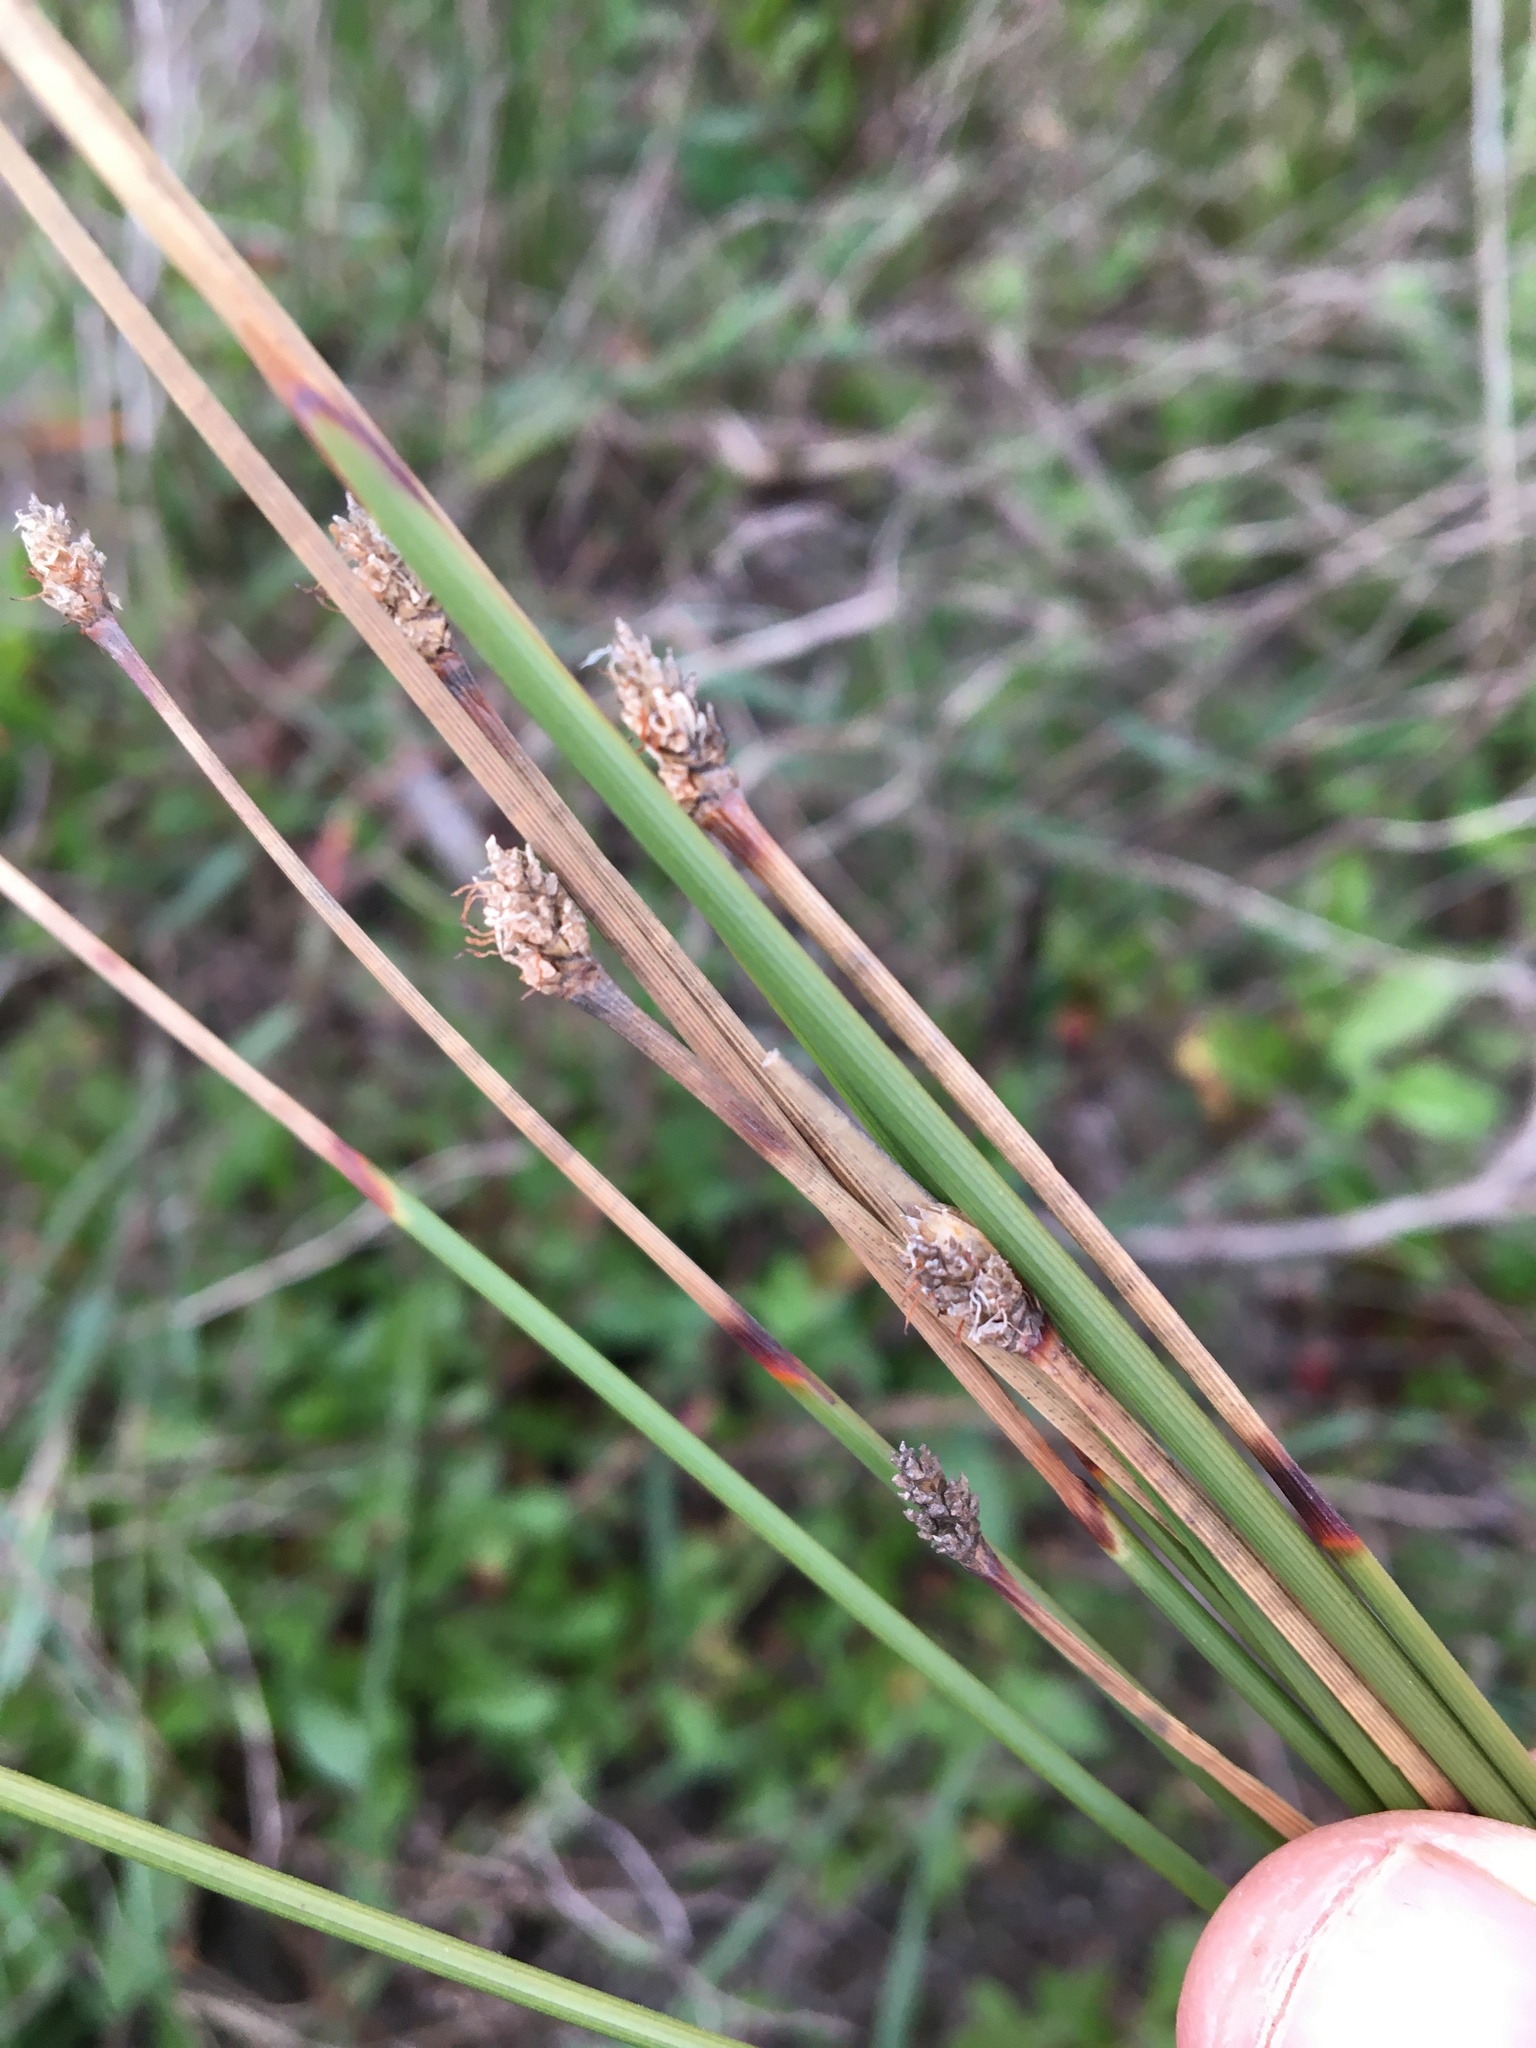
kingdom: Plantae
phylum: Tracheophyta
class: Liliopsida
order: Poales
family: Cyperaceae
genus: Ficinia
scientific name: Ficinia indica
